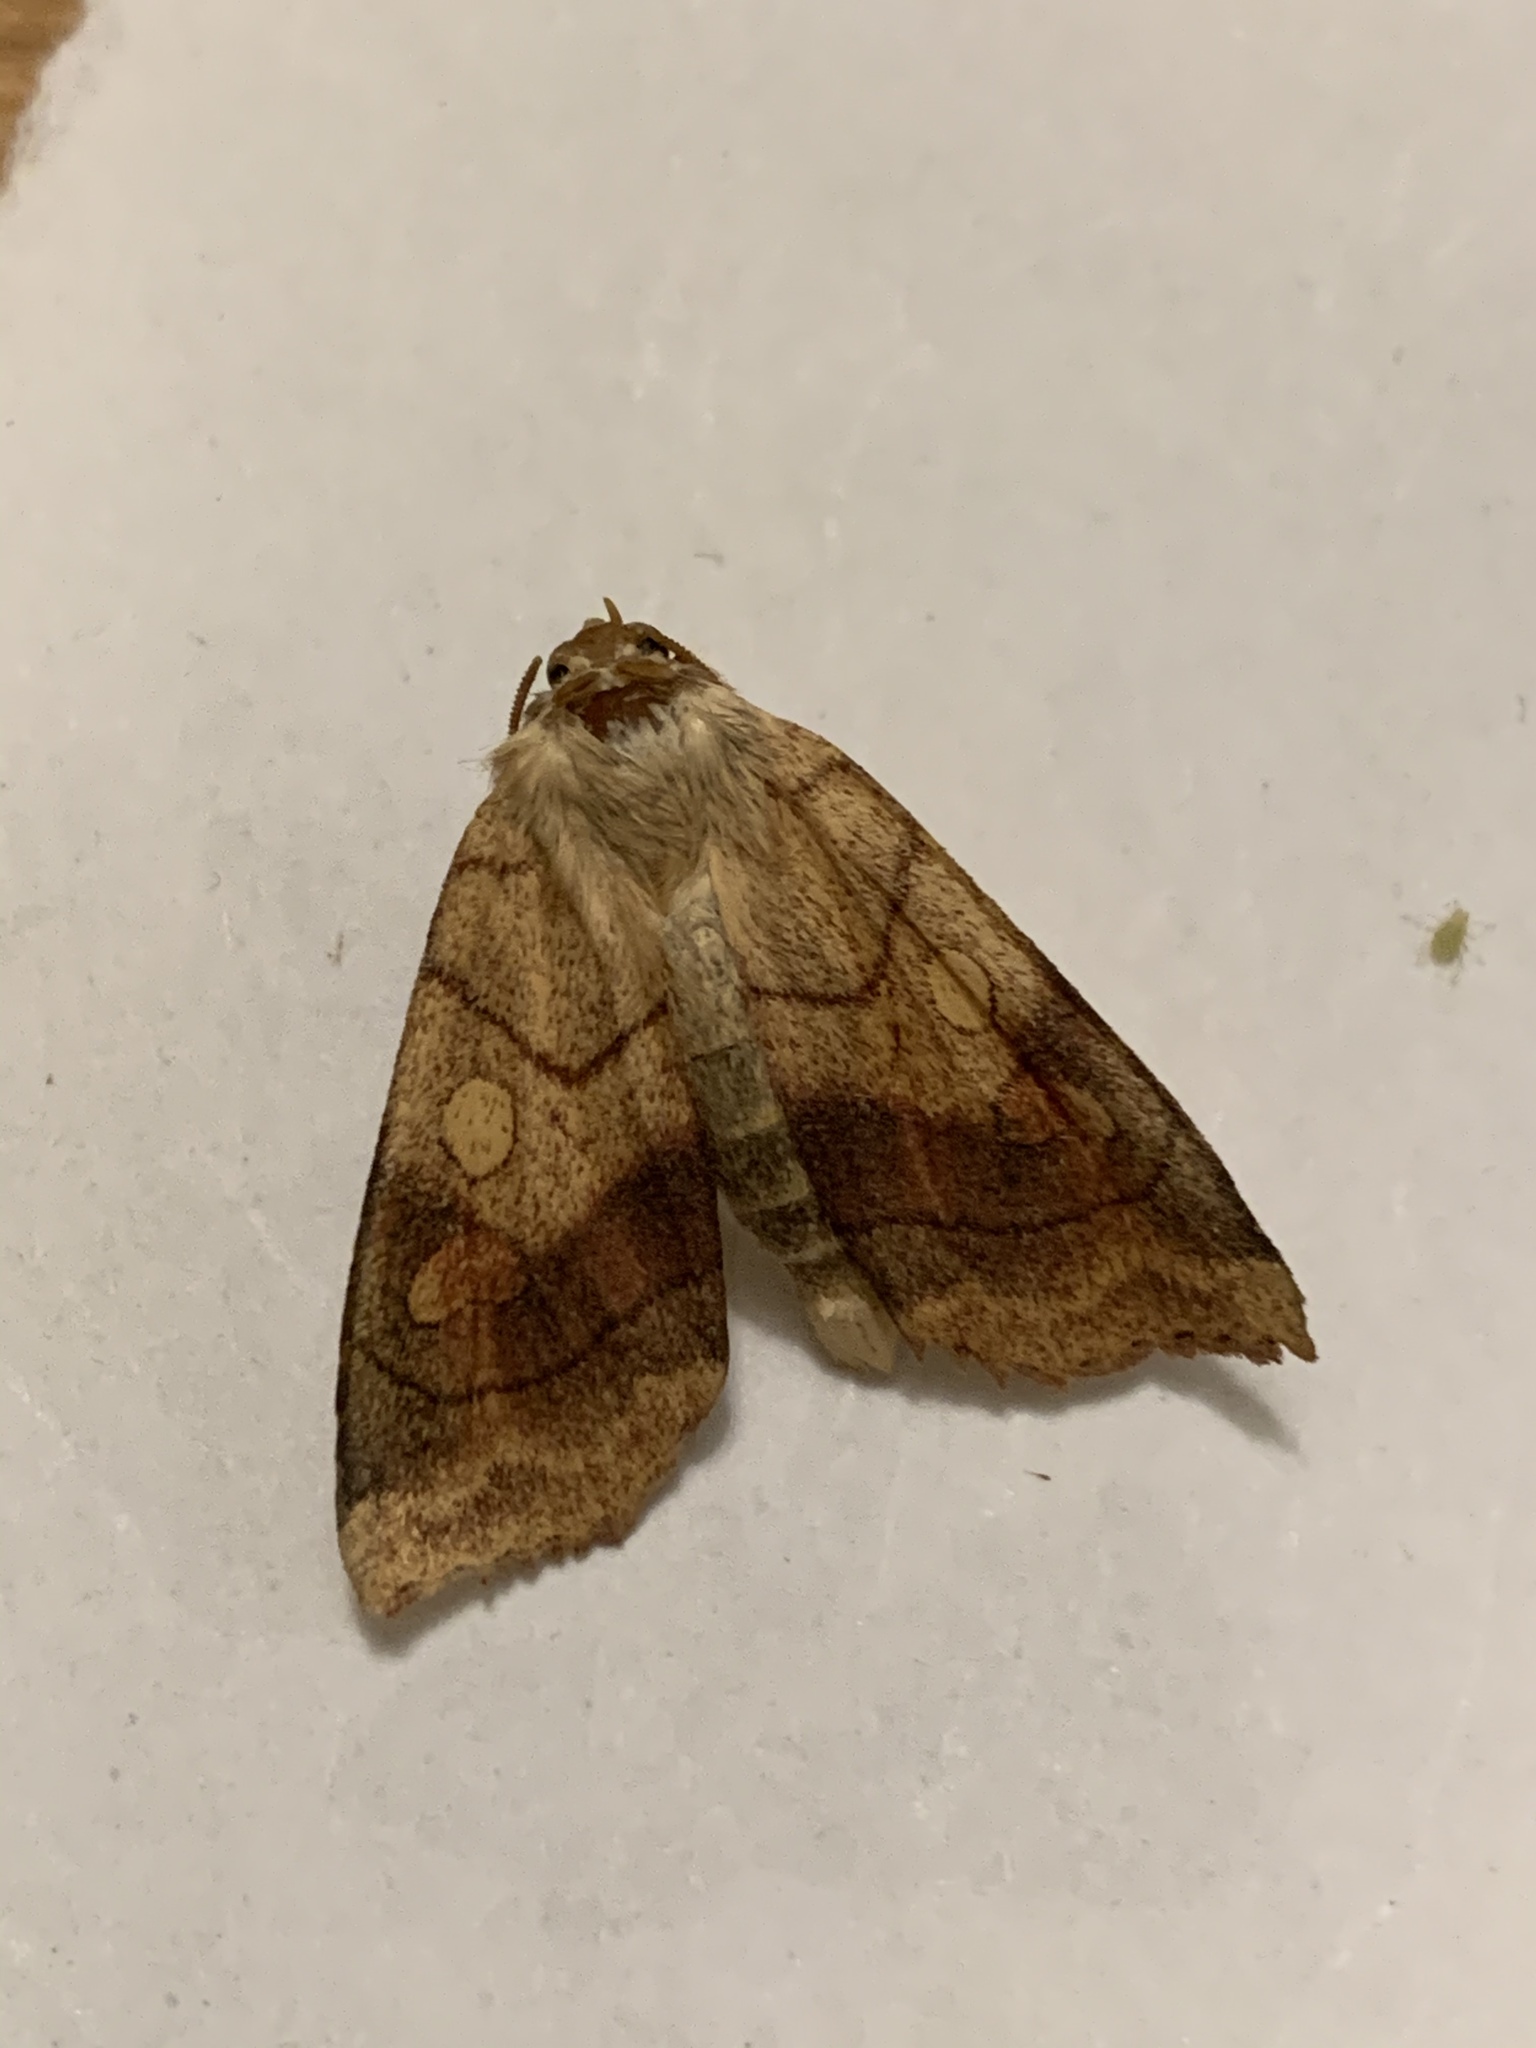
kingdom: Animalia
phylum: Arthropoda
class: Insecta
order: Lepidoptera
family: Noctuidae
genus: Enargia
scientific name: Enargia decolor
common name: Aspen twoleaf tier moth
